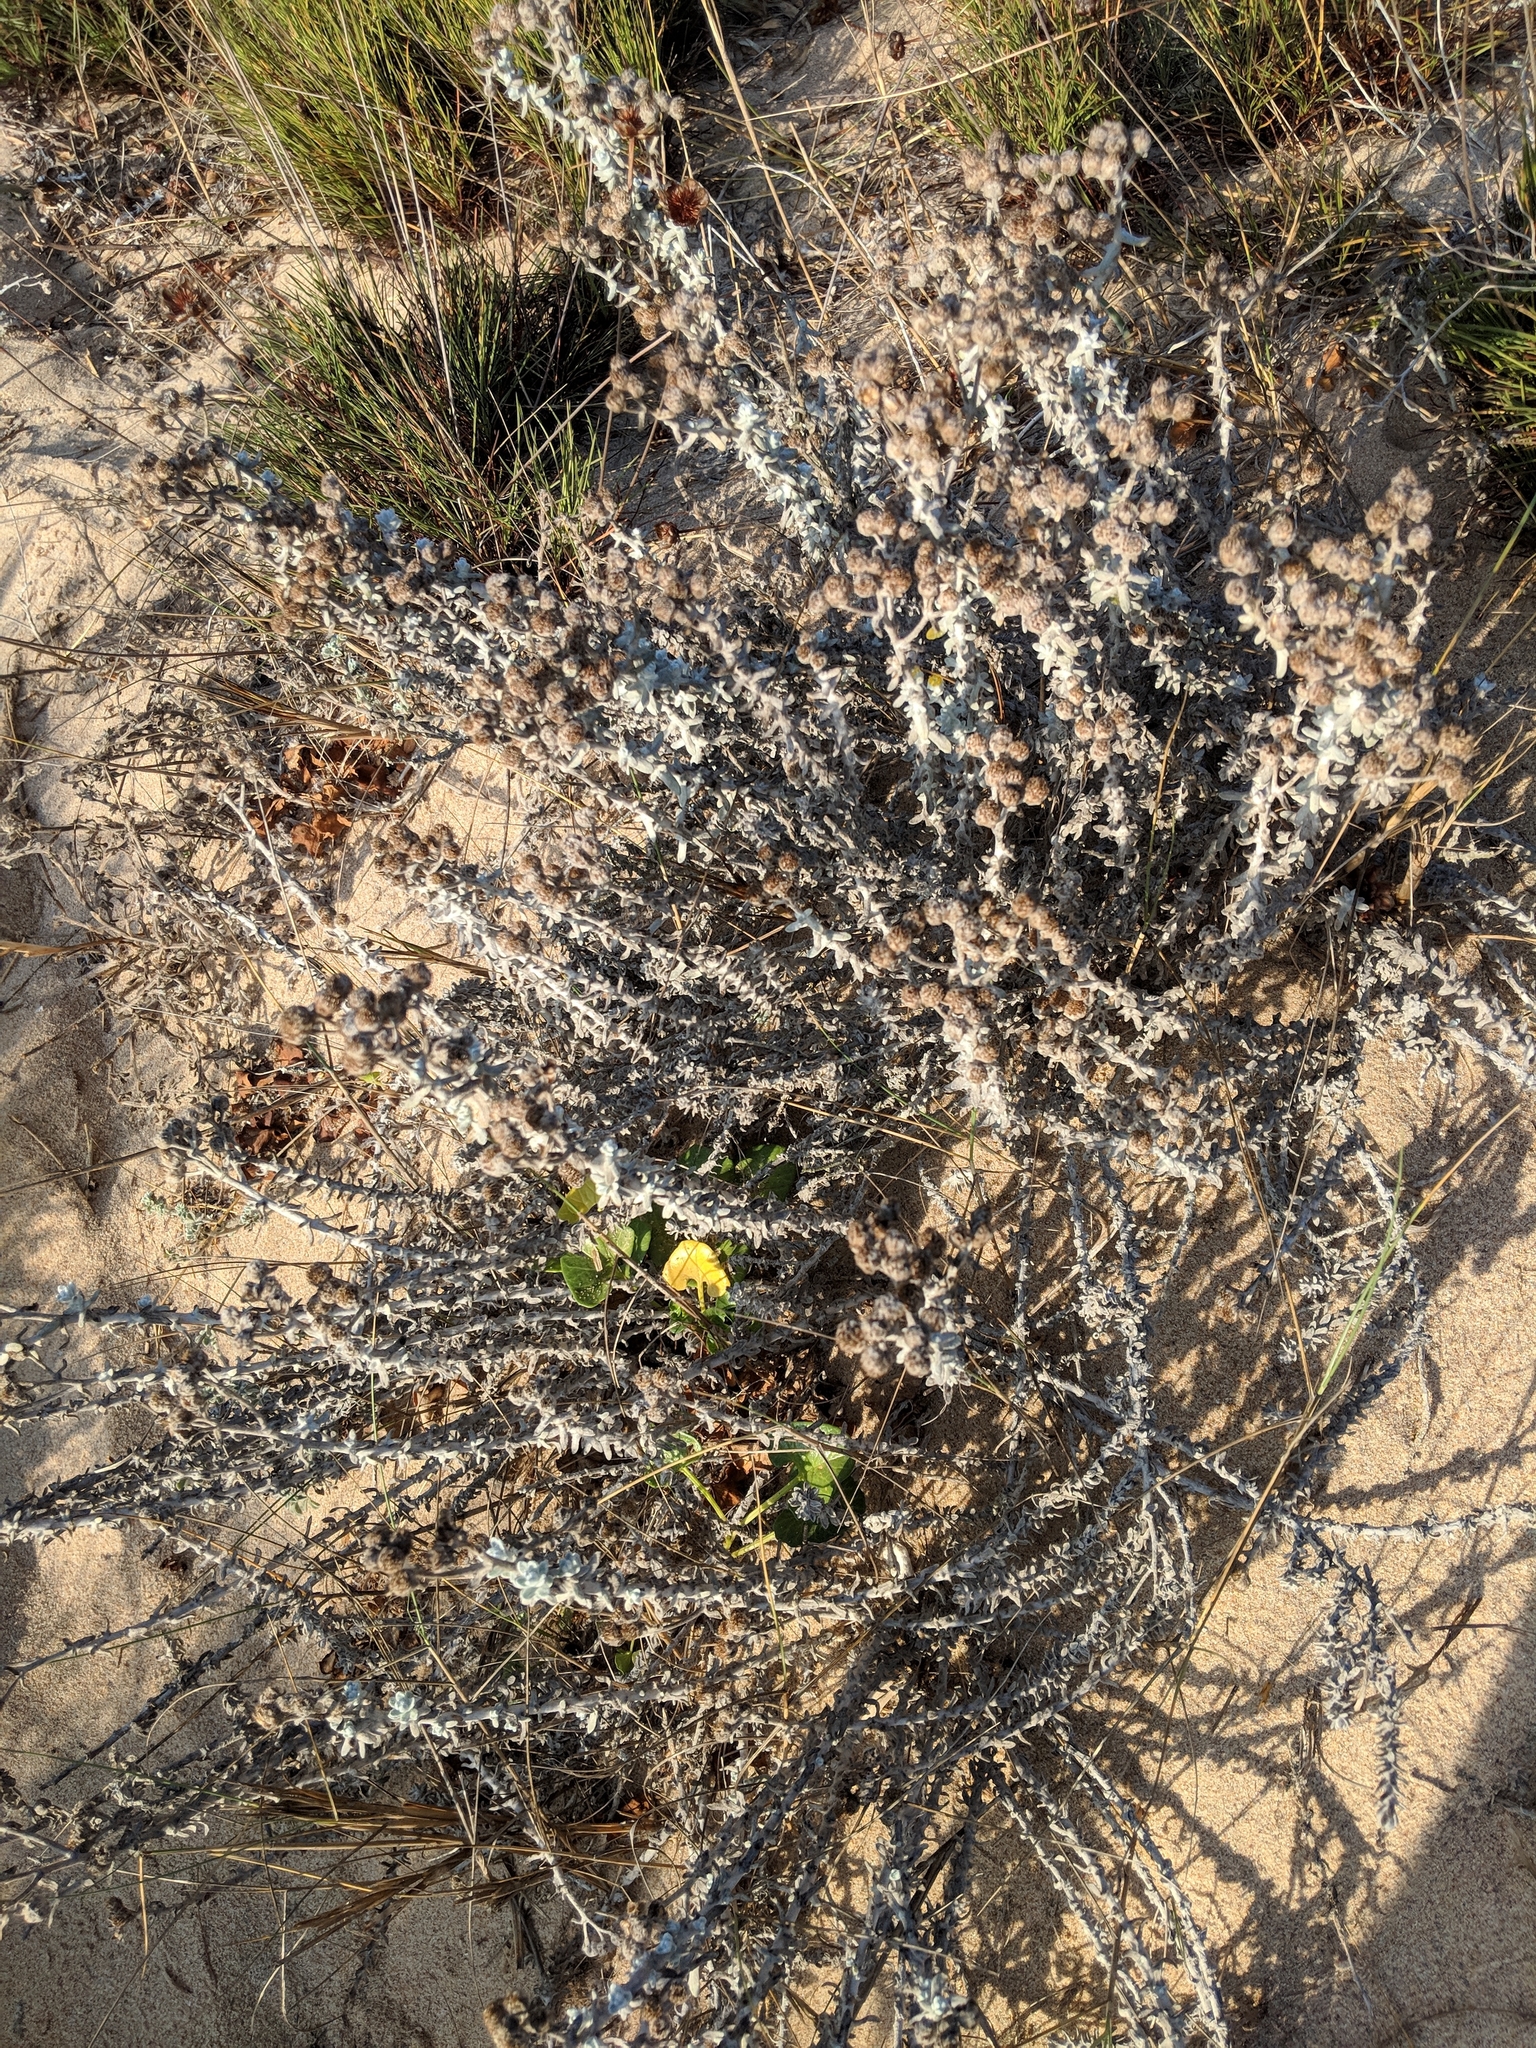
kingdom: Plantae
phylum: Tracheophyta
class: Magnoliopsida
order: Asterales
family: Asteraceae
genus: Achillea
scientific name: Achillea maritima
